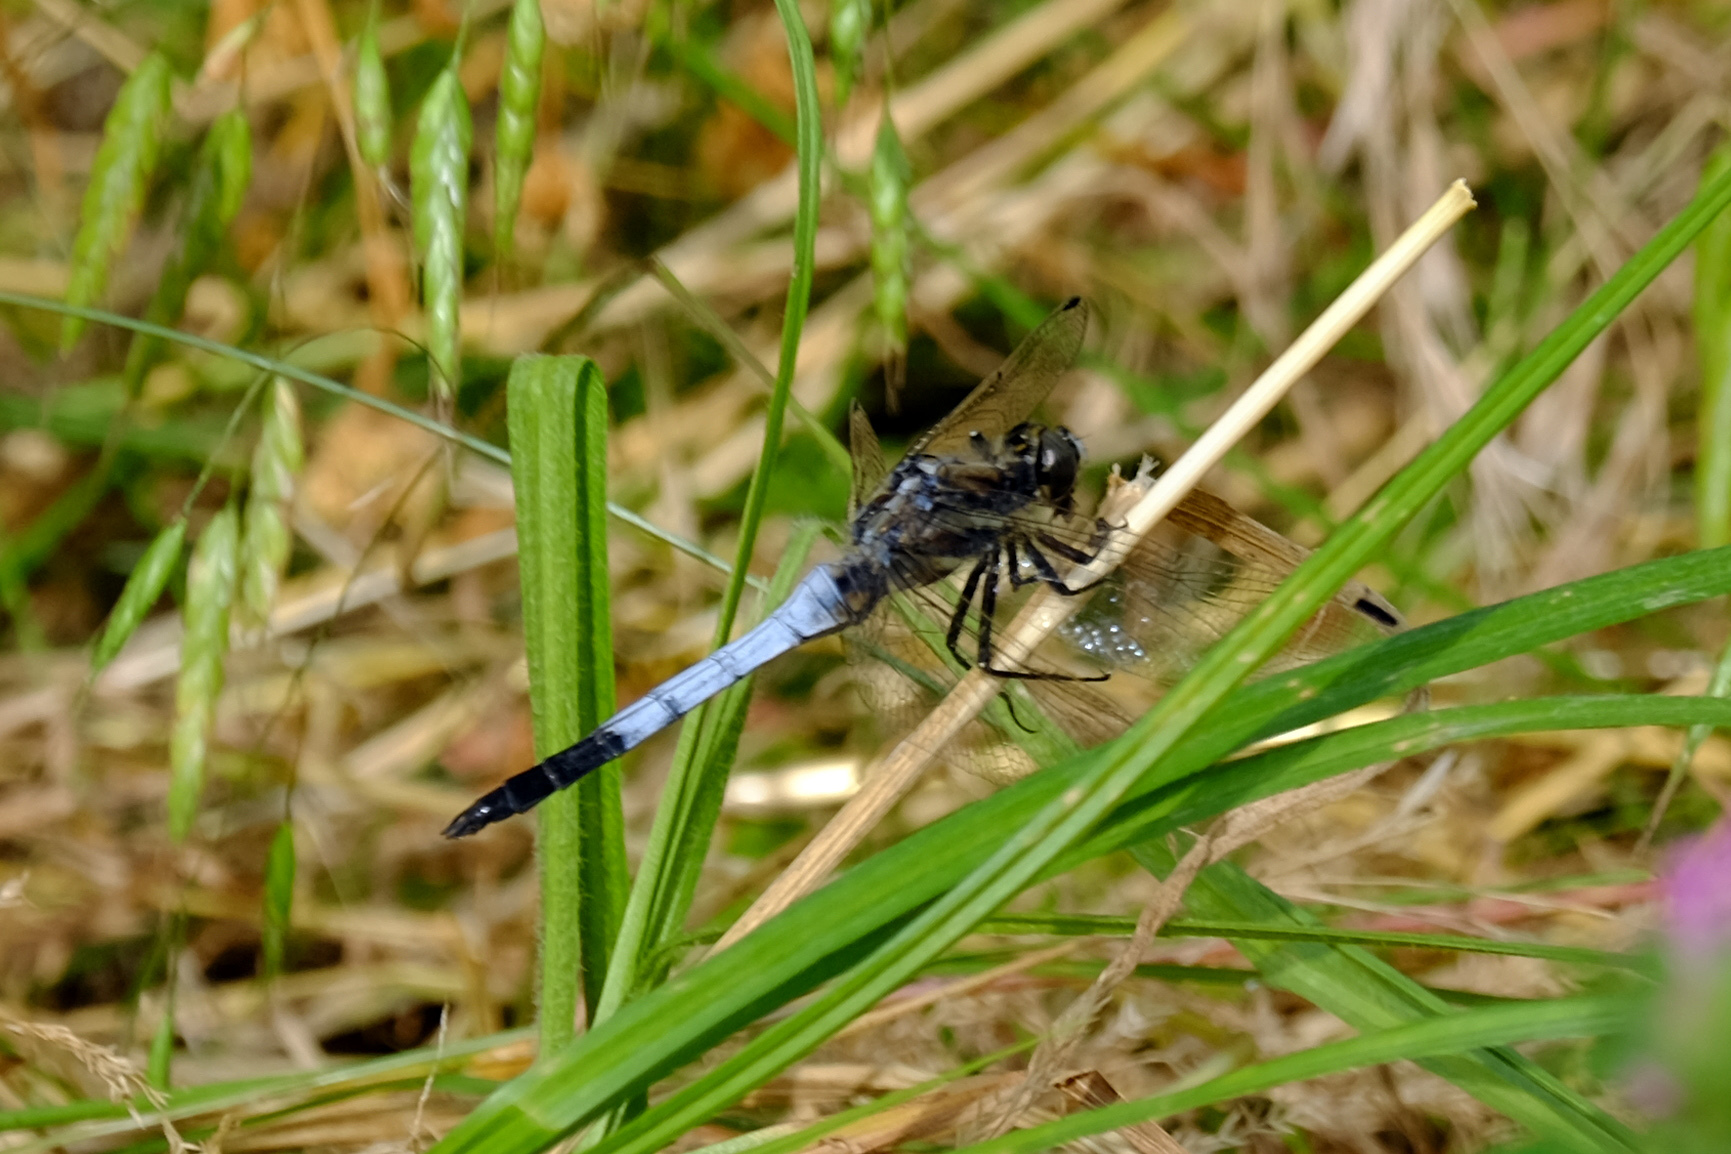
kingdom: Animalia
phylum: Arthropoda
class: Insecta
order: Odonata
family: Libellulidae
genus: Orthetrum
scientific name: Orthetrum albistylum
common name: White-tailed skimmer
